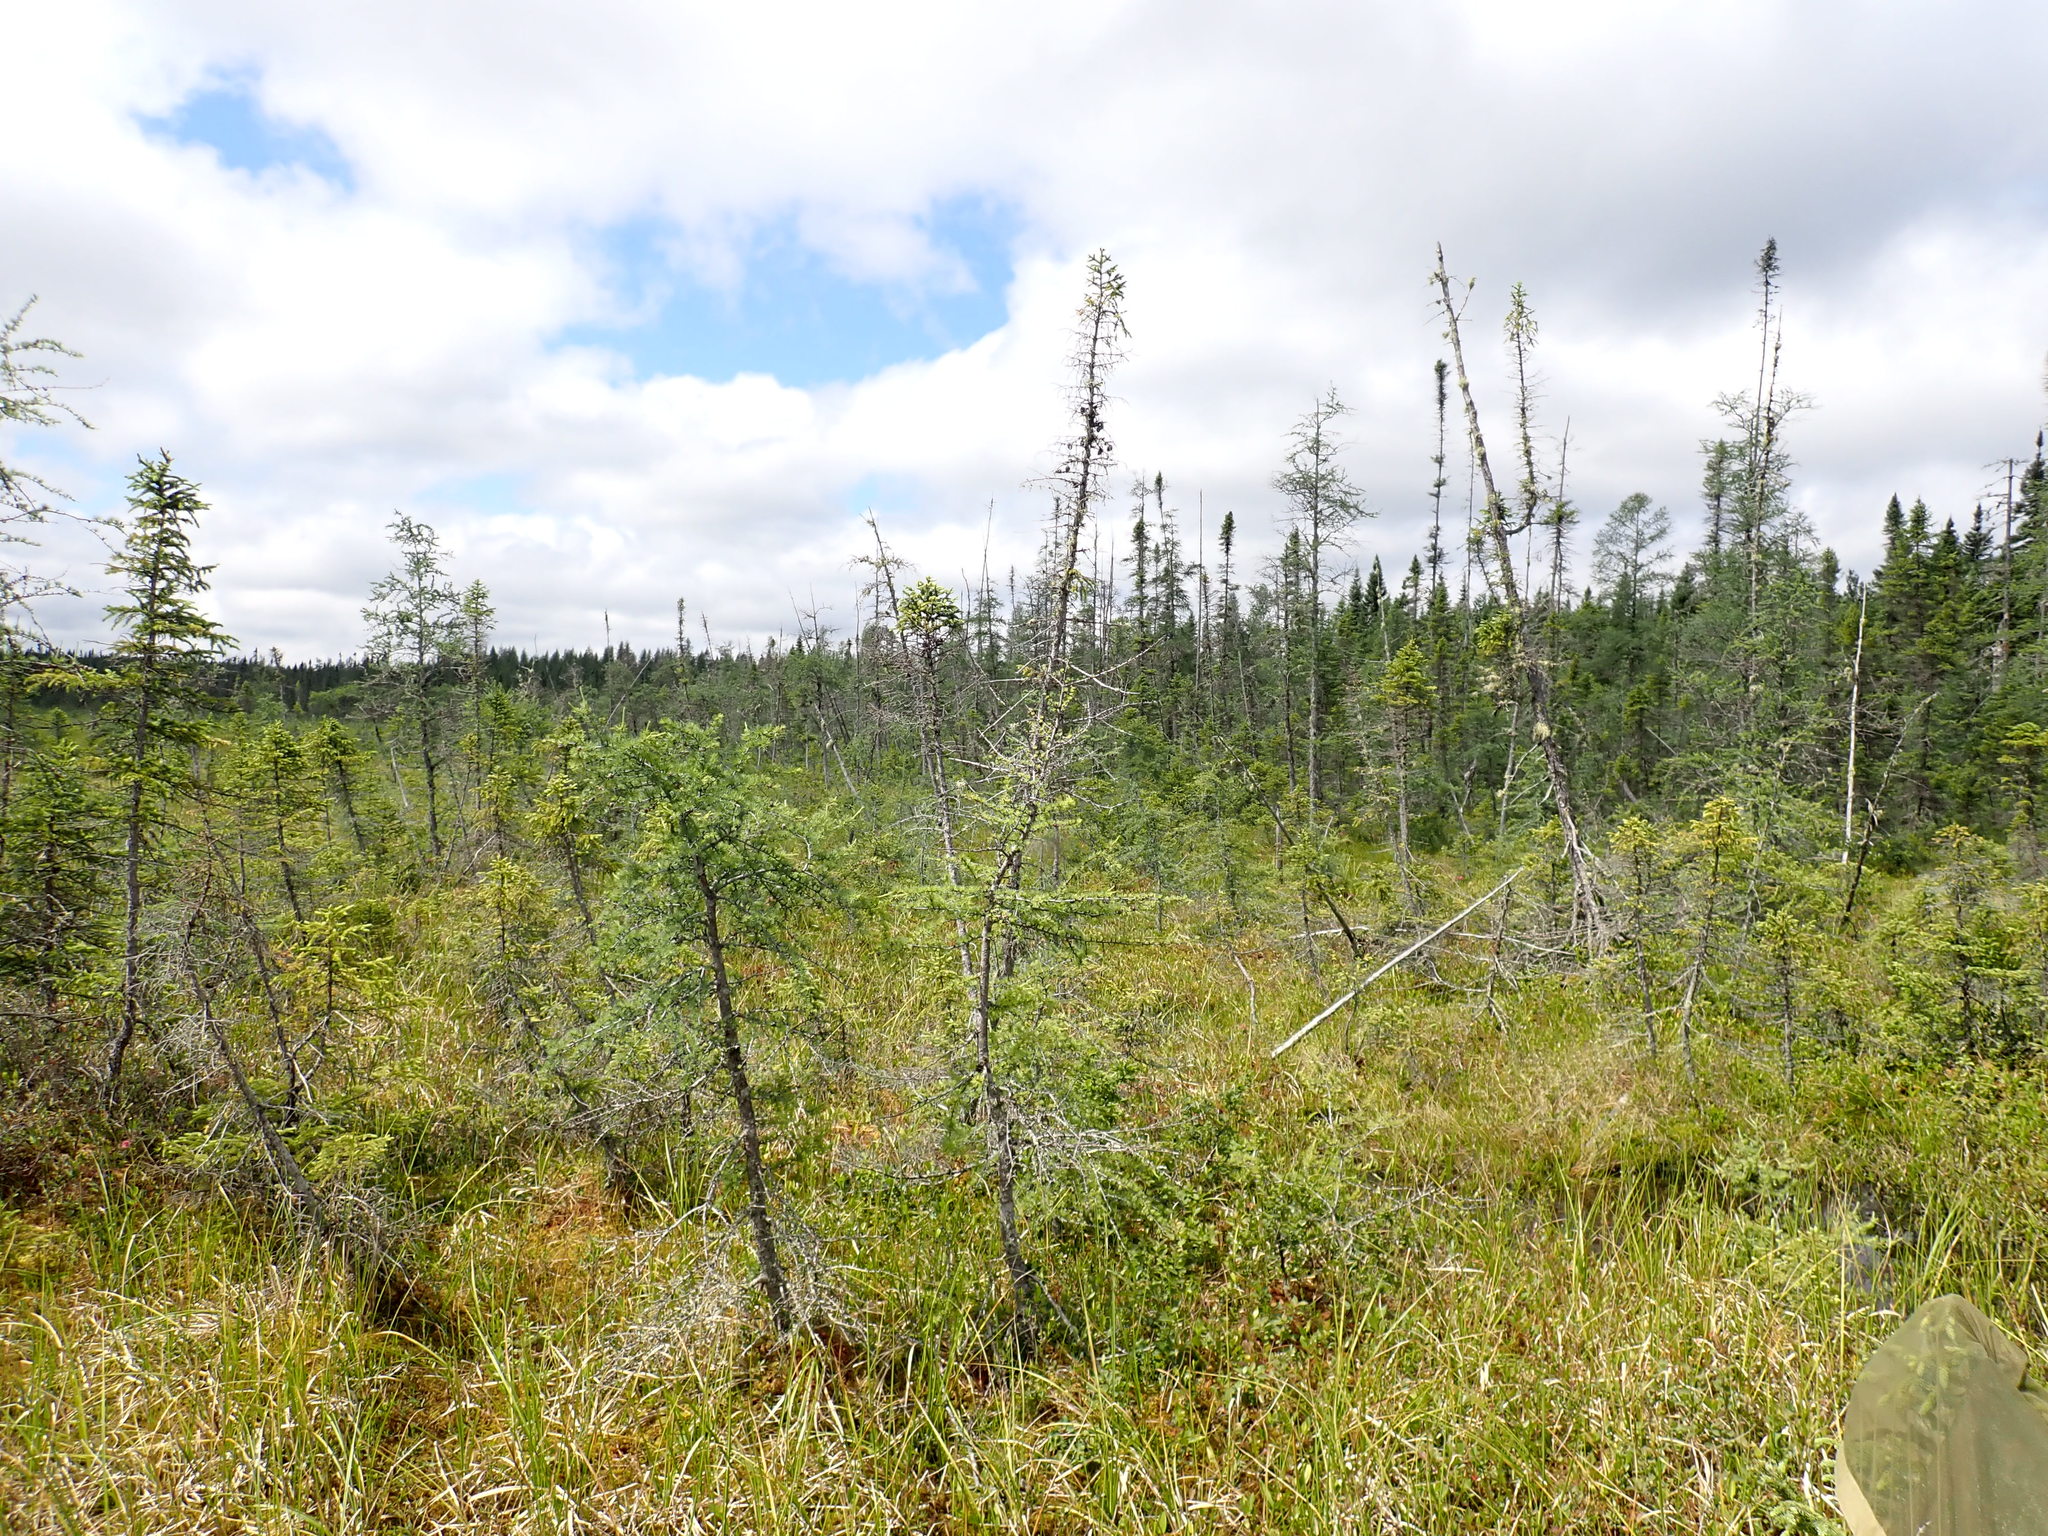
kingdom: Plantae
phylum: Tracheophyta
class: Pinopsida
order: Pinales
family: Pinaceae
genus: Picea
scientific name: Picea mariana
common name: Black spruce
